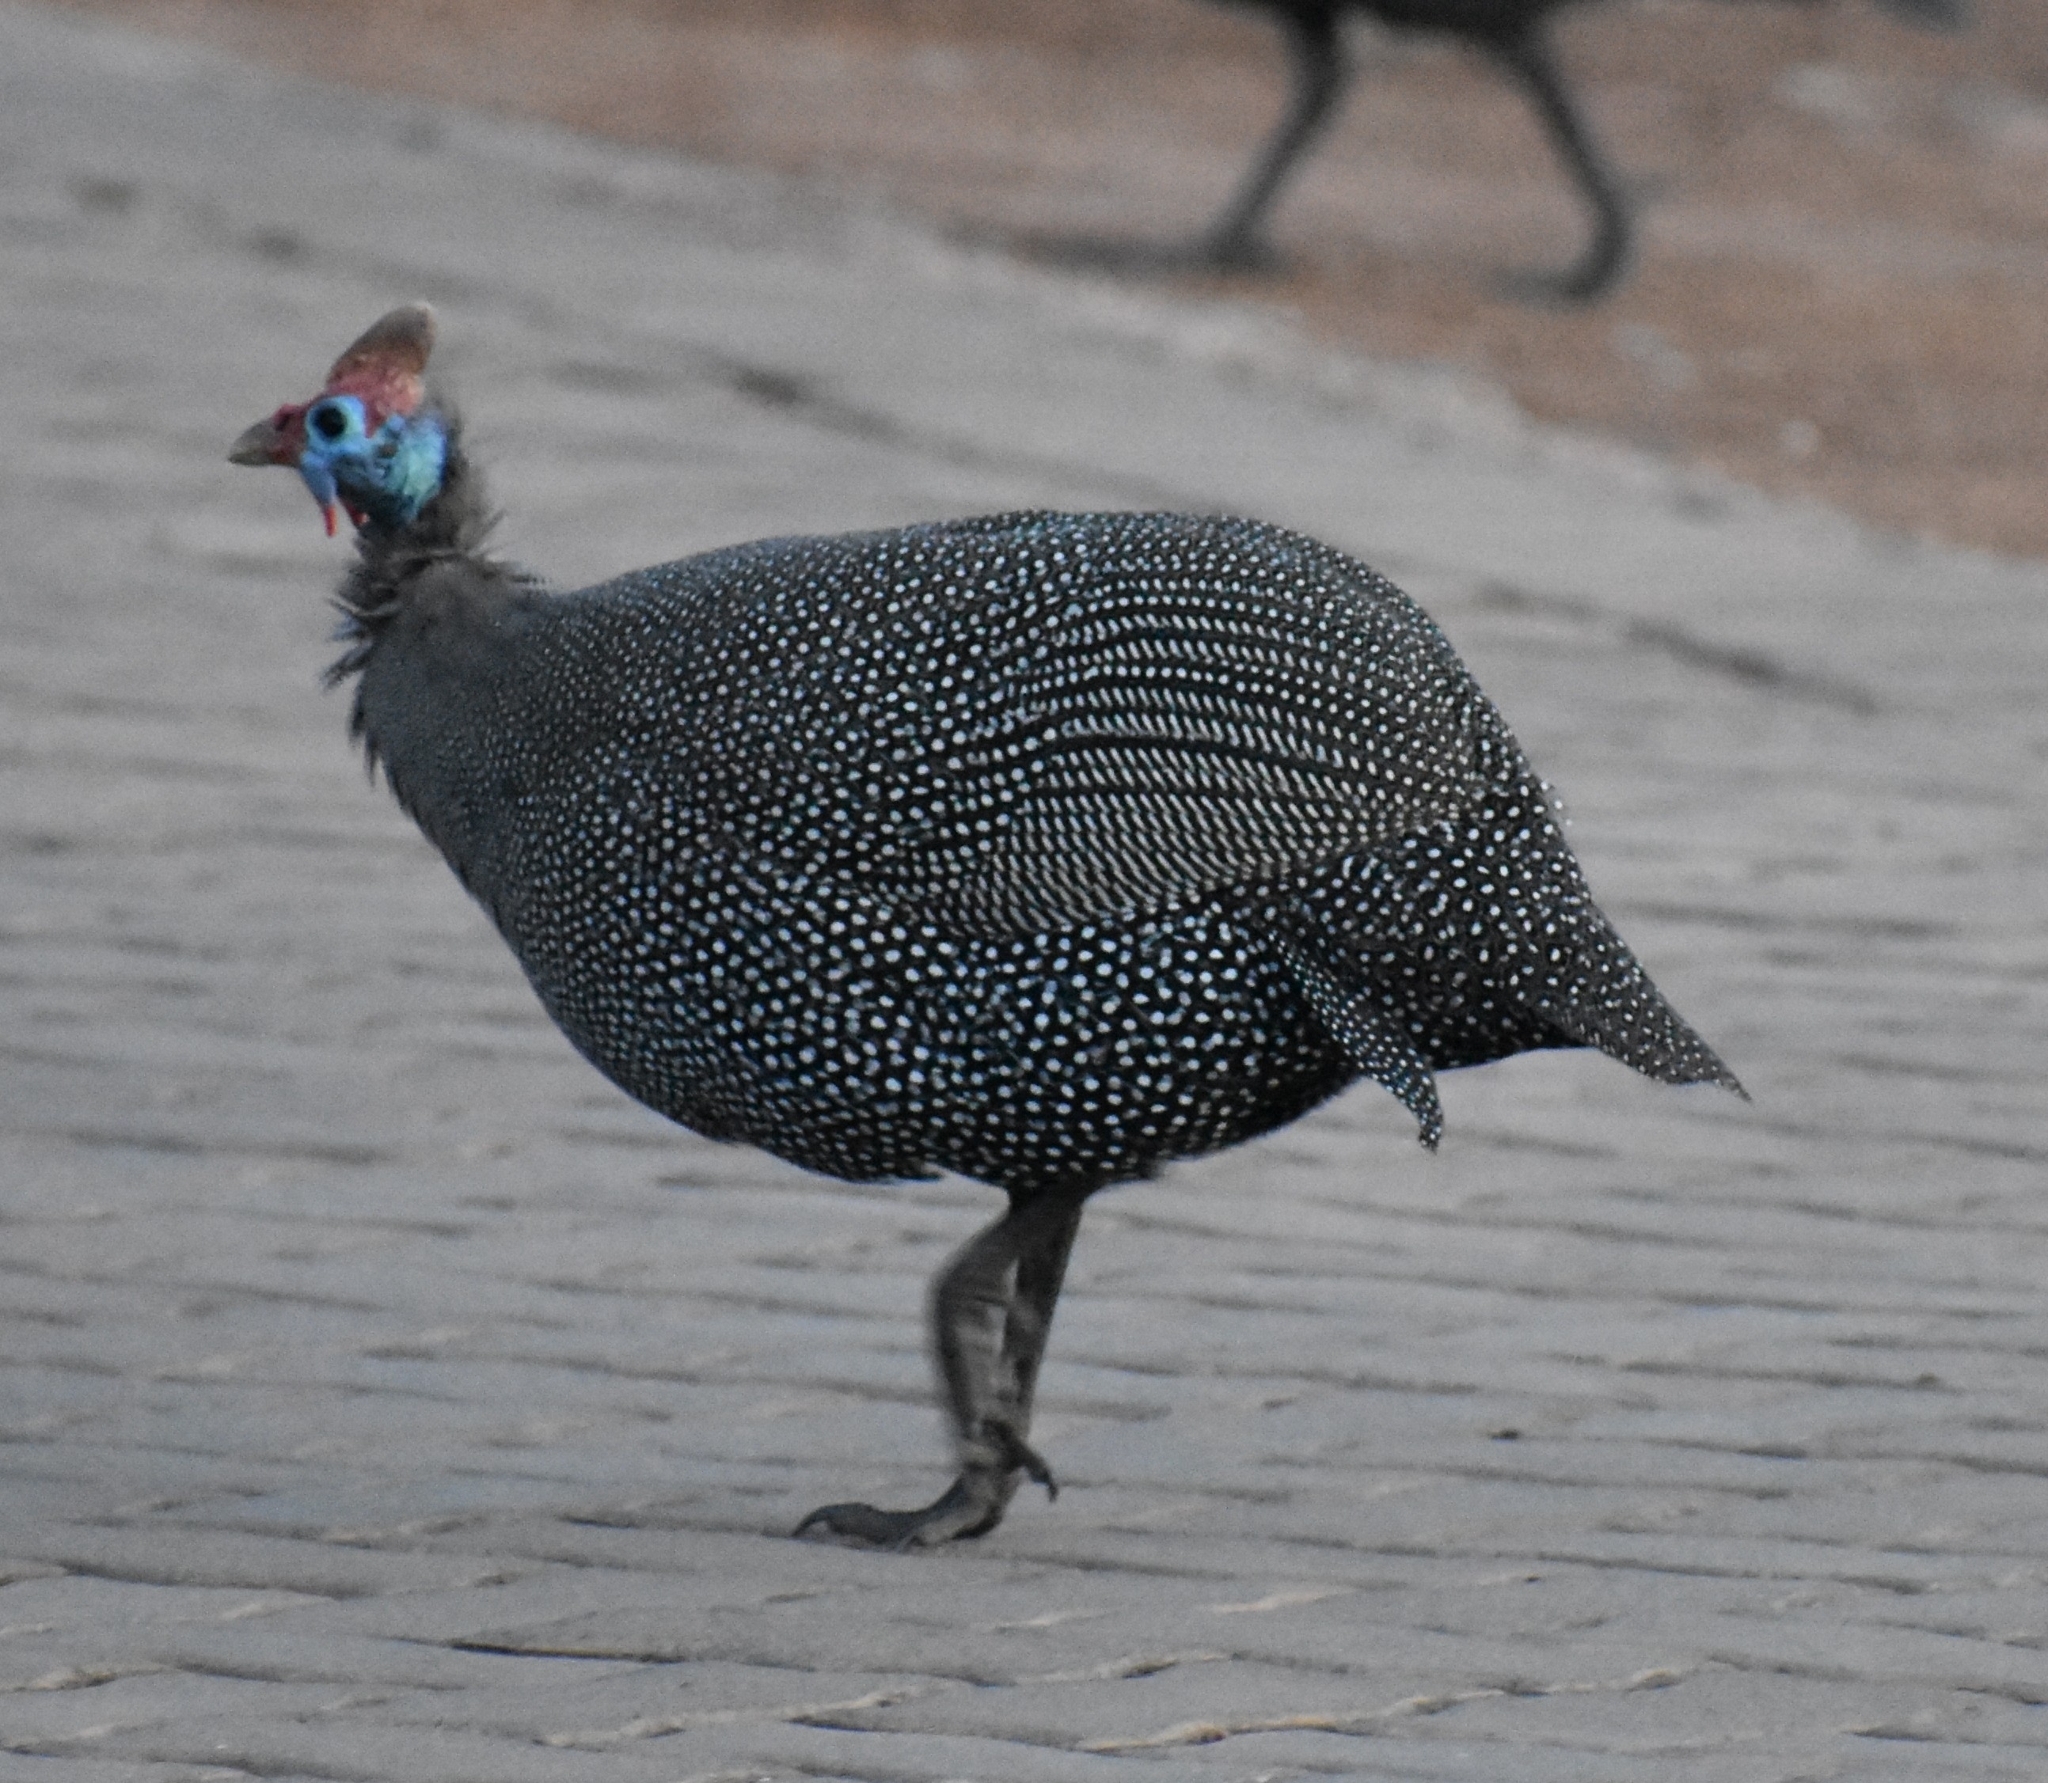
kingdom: Animalia
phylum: Chordata
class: Aves
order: Galliformes
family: Numididae
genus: Numida
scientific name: Numida meleagris
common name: Helmeted guineafowl
